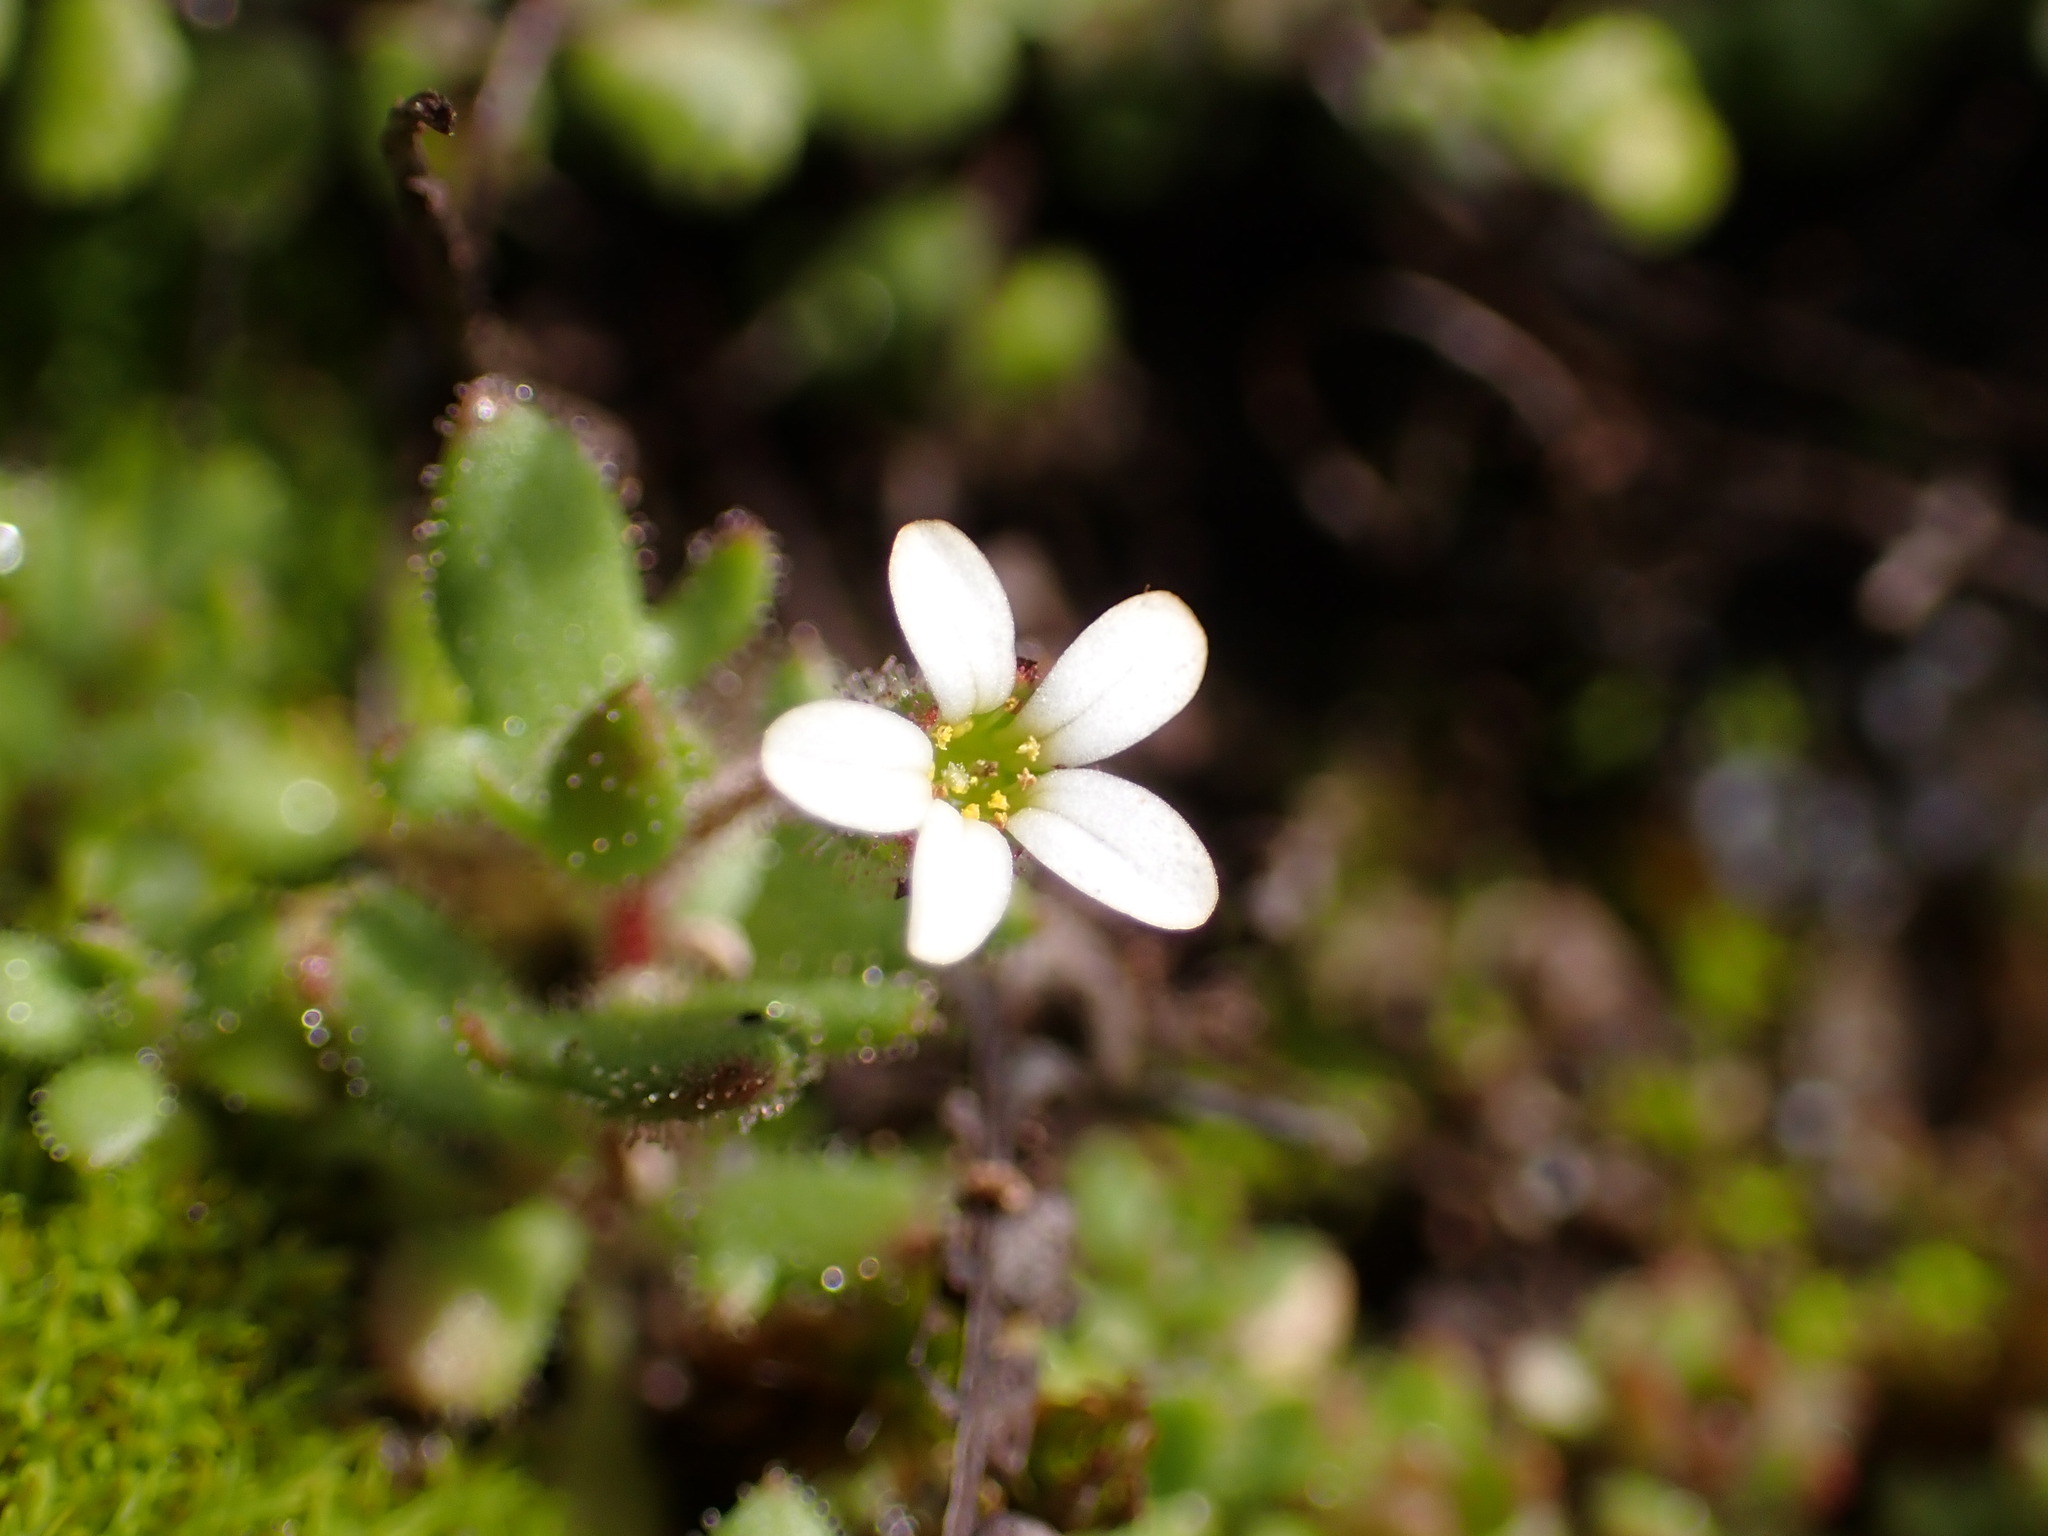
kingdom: Plantae
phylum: Tracheophyta
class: Magnoliopsida
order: Saxifragales
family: Saxifragaceae
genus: Saxifraga
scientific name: Saxifraga tridactylites
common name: Rue-leaved saxifrage
